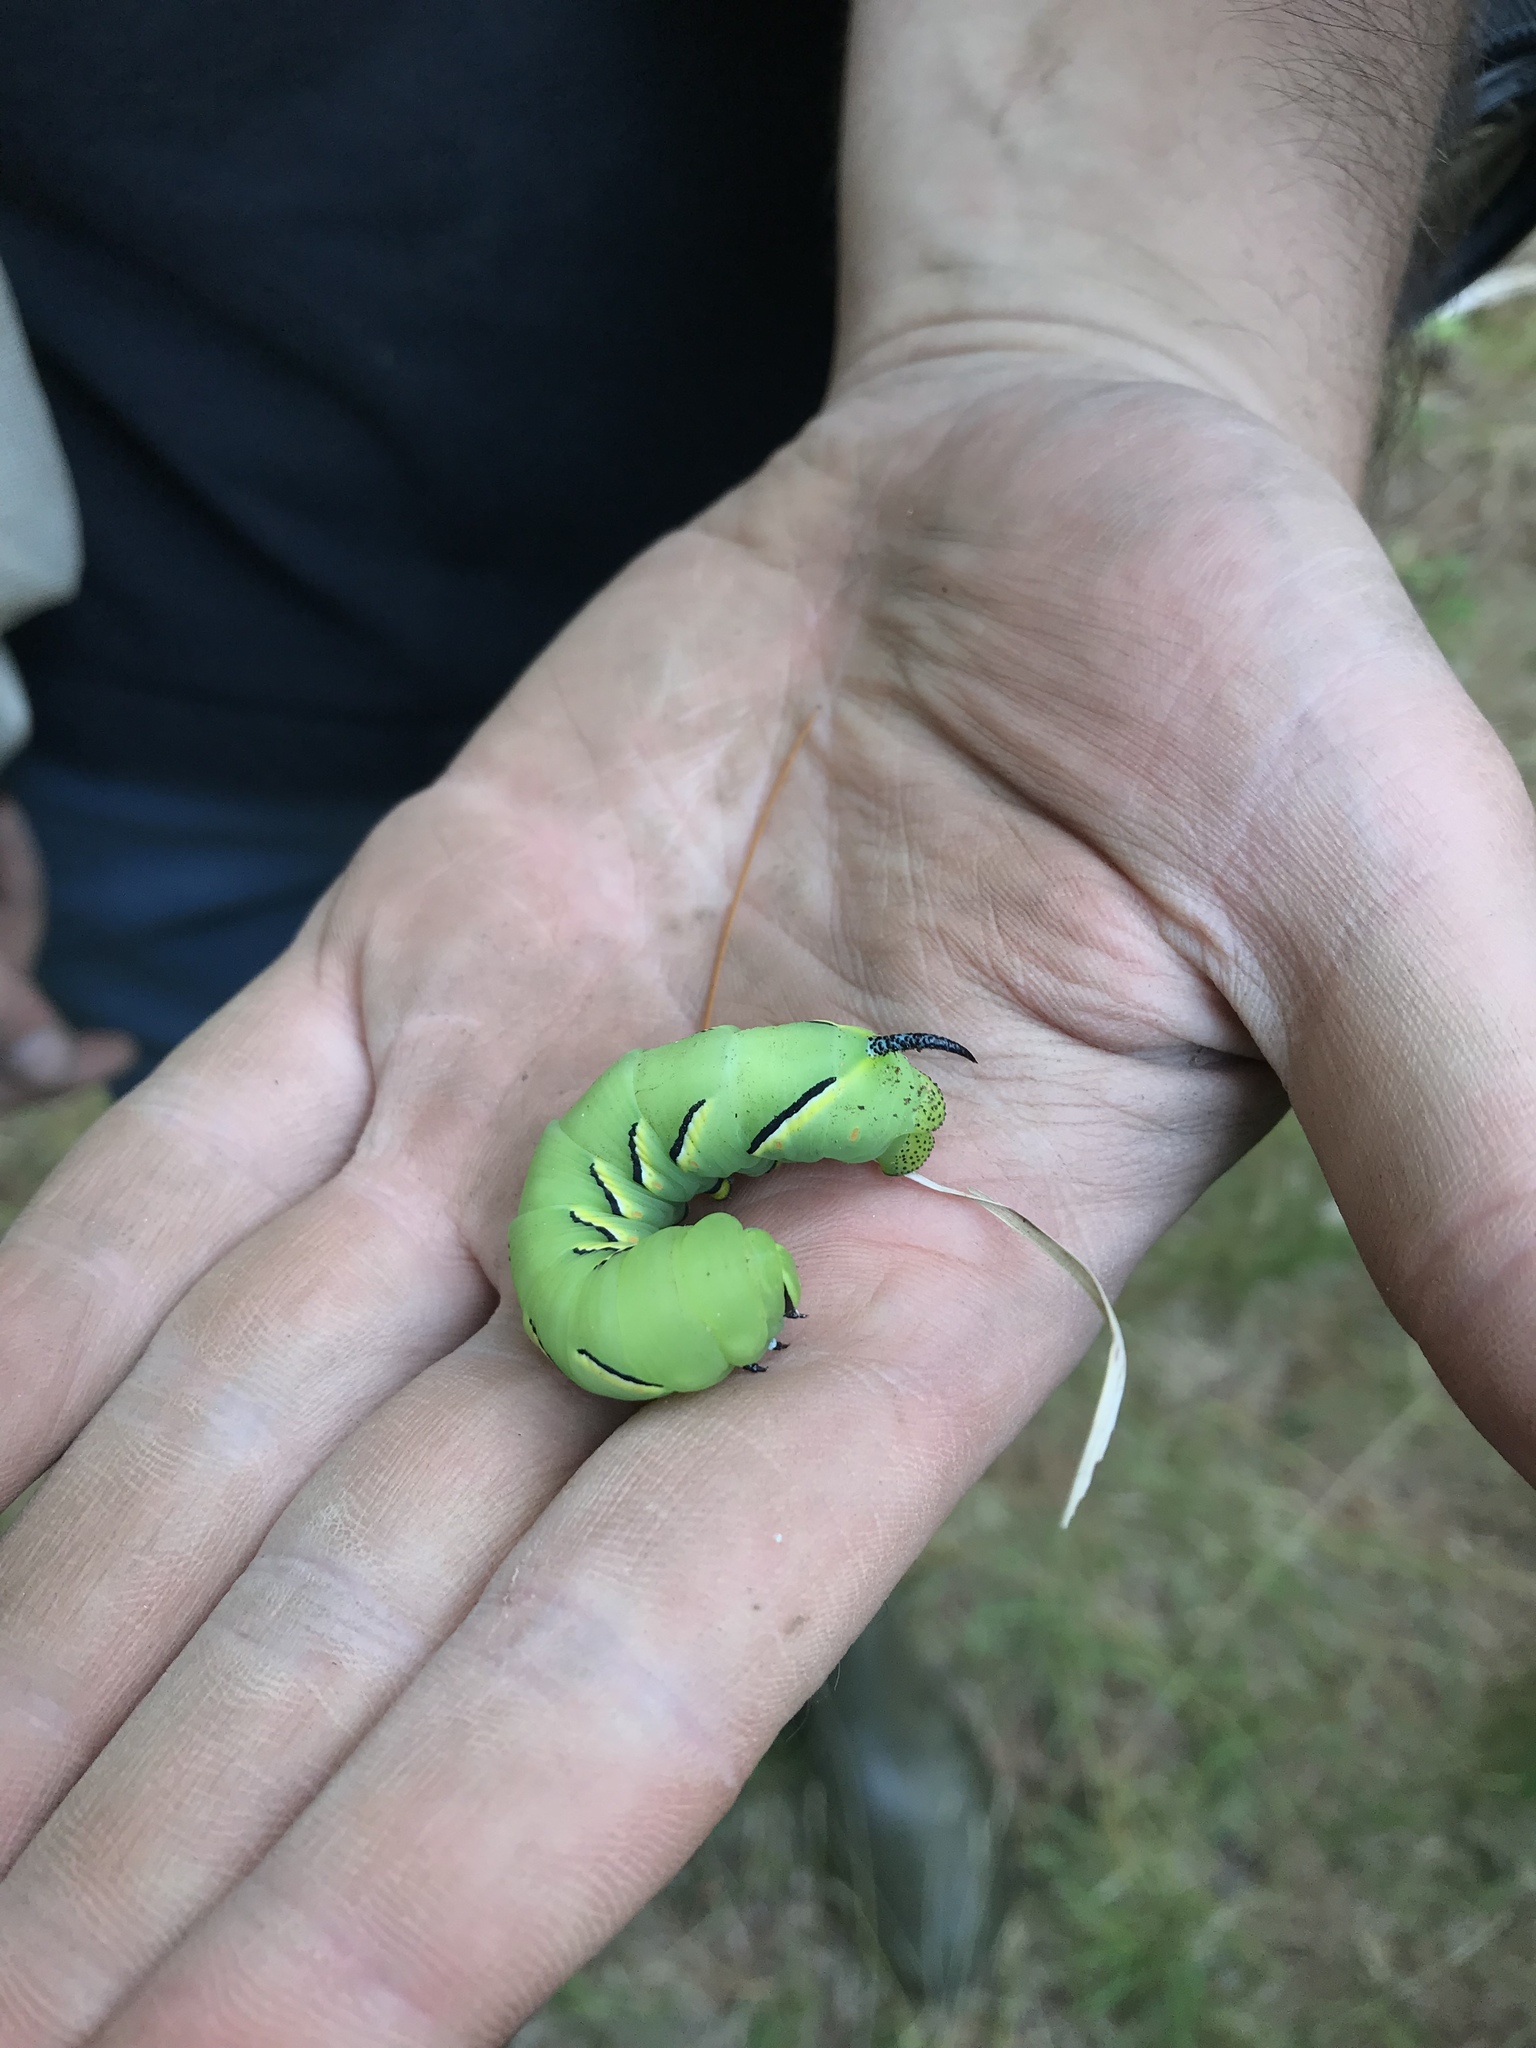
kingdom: Animalia
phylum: Arthropoda
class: Insecta
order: Lepidoptera
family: Sphingidae
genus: Sphinx
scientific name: Sphinx kalmiae
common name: Laurel sphinx
